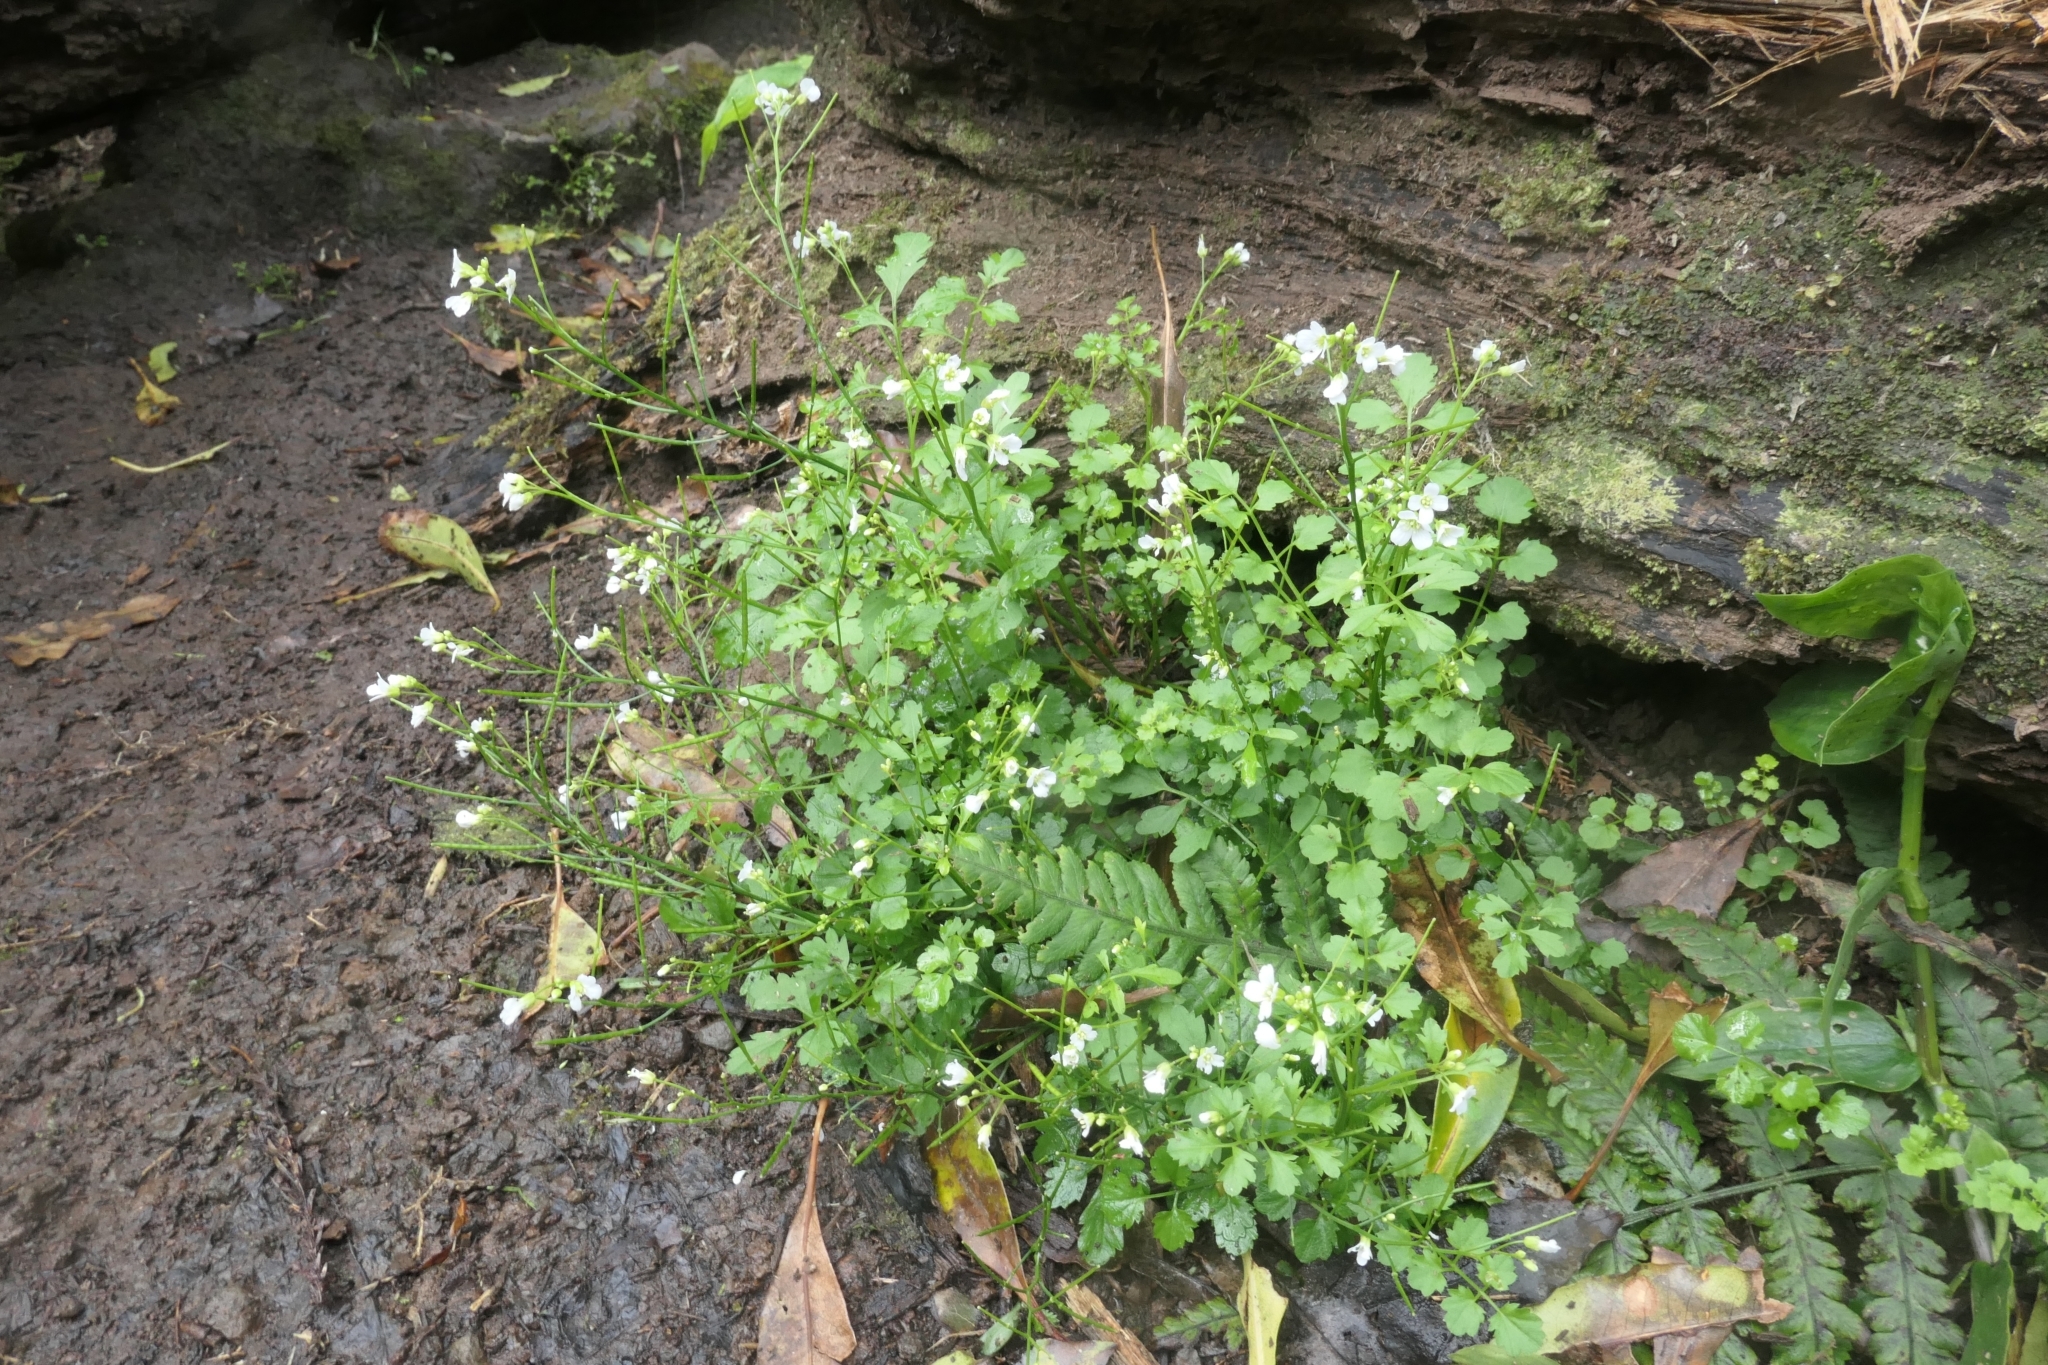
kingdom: Plantae
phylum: Tracheophyta
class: Magnoliopsida
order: Brassicales
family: Brassicaceae
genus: Cardamine
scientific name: Cardamine caldeirarum
